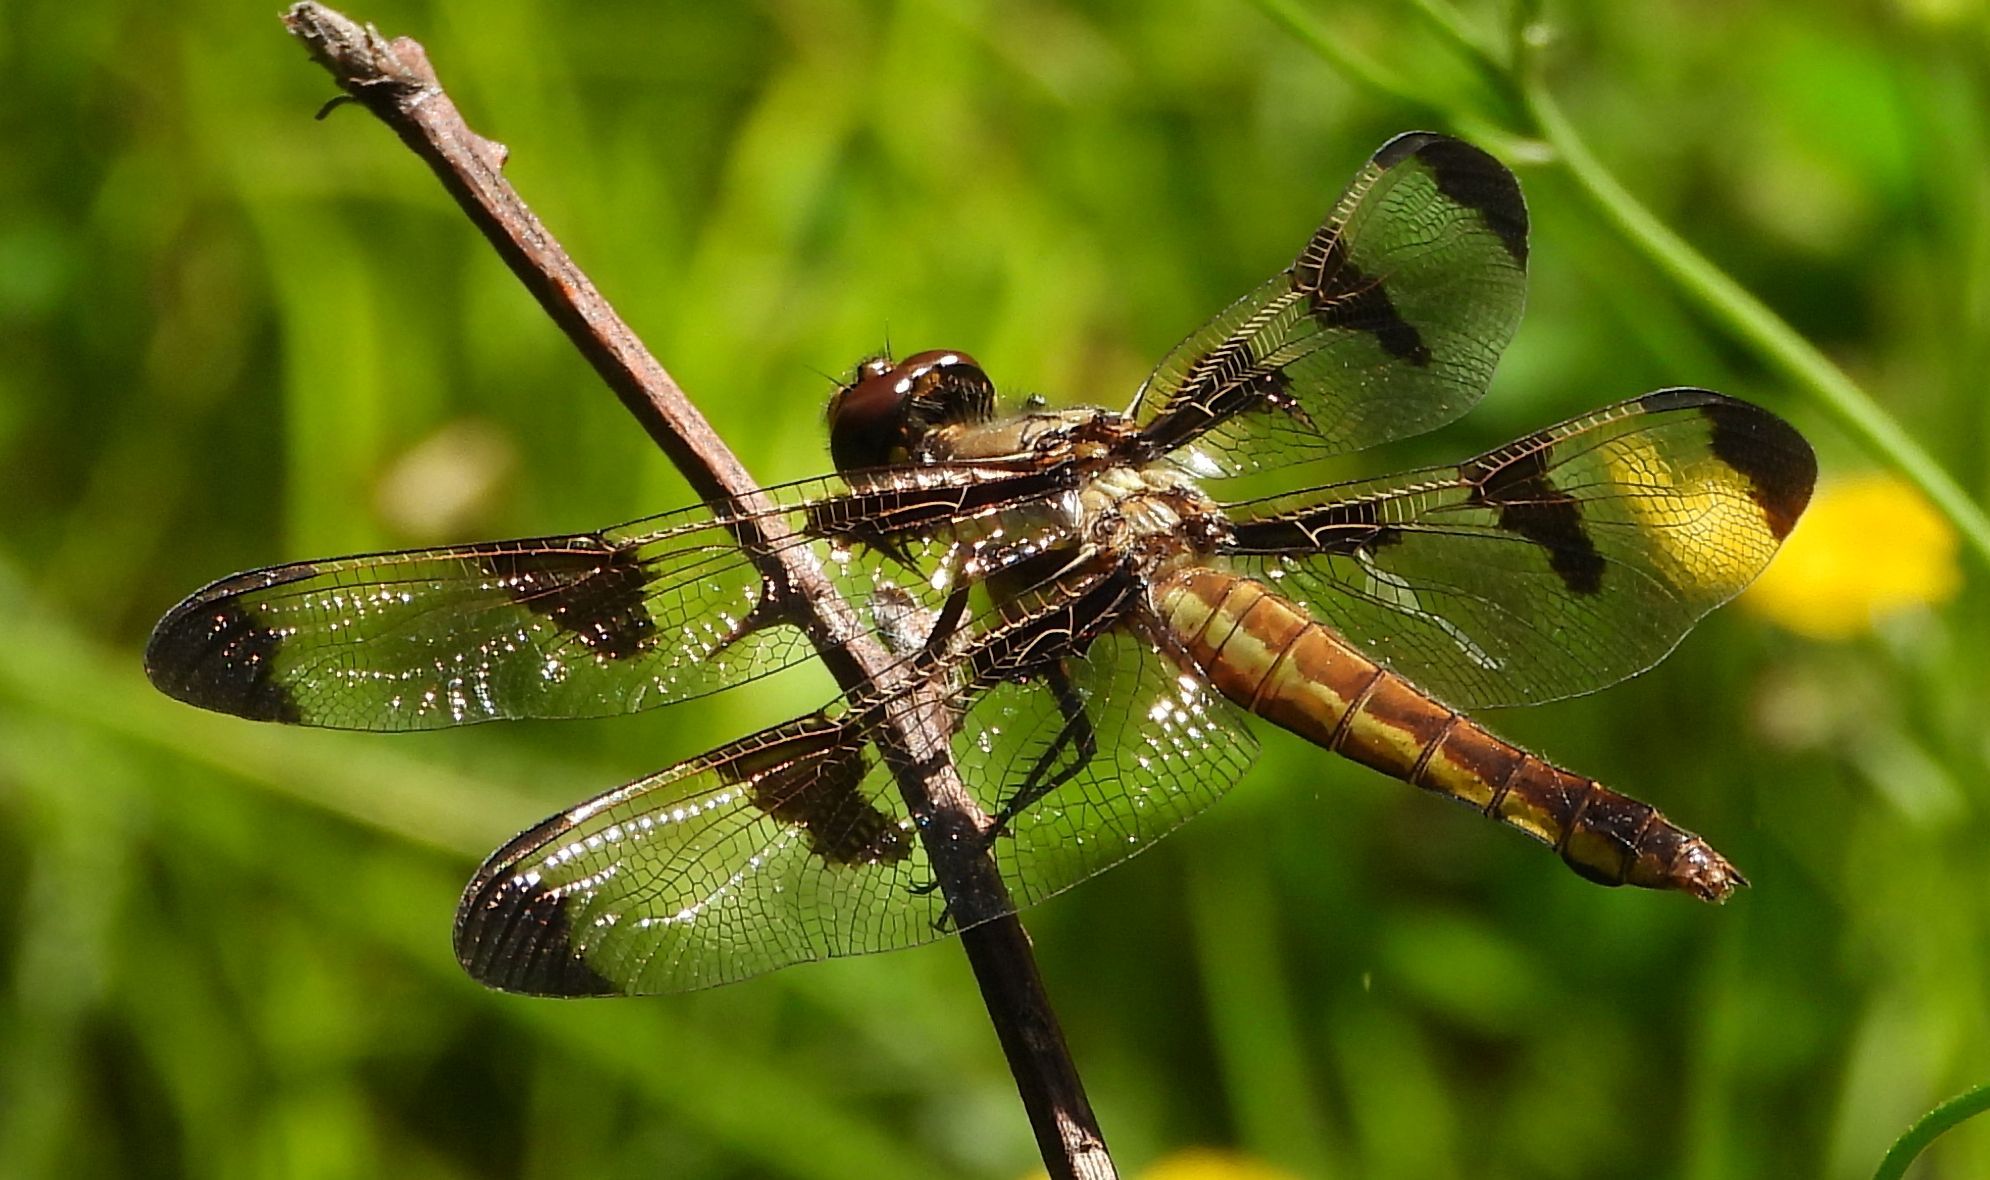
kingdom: Animalia
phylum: Arthropoda
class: Insecta
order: Odonata
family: Libellulidae
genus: Libellula
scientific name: Libellula pulchella
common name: Twelve-spotted skimmer
